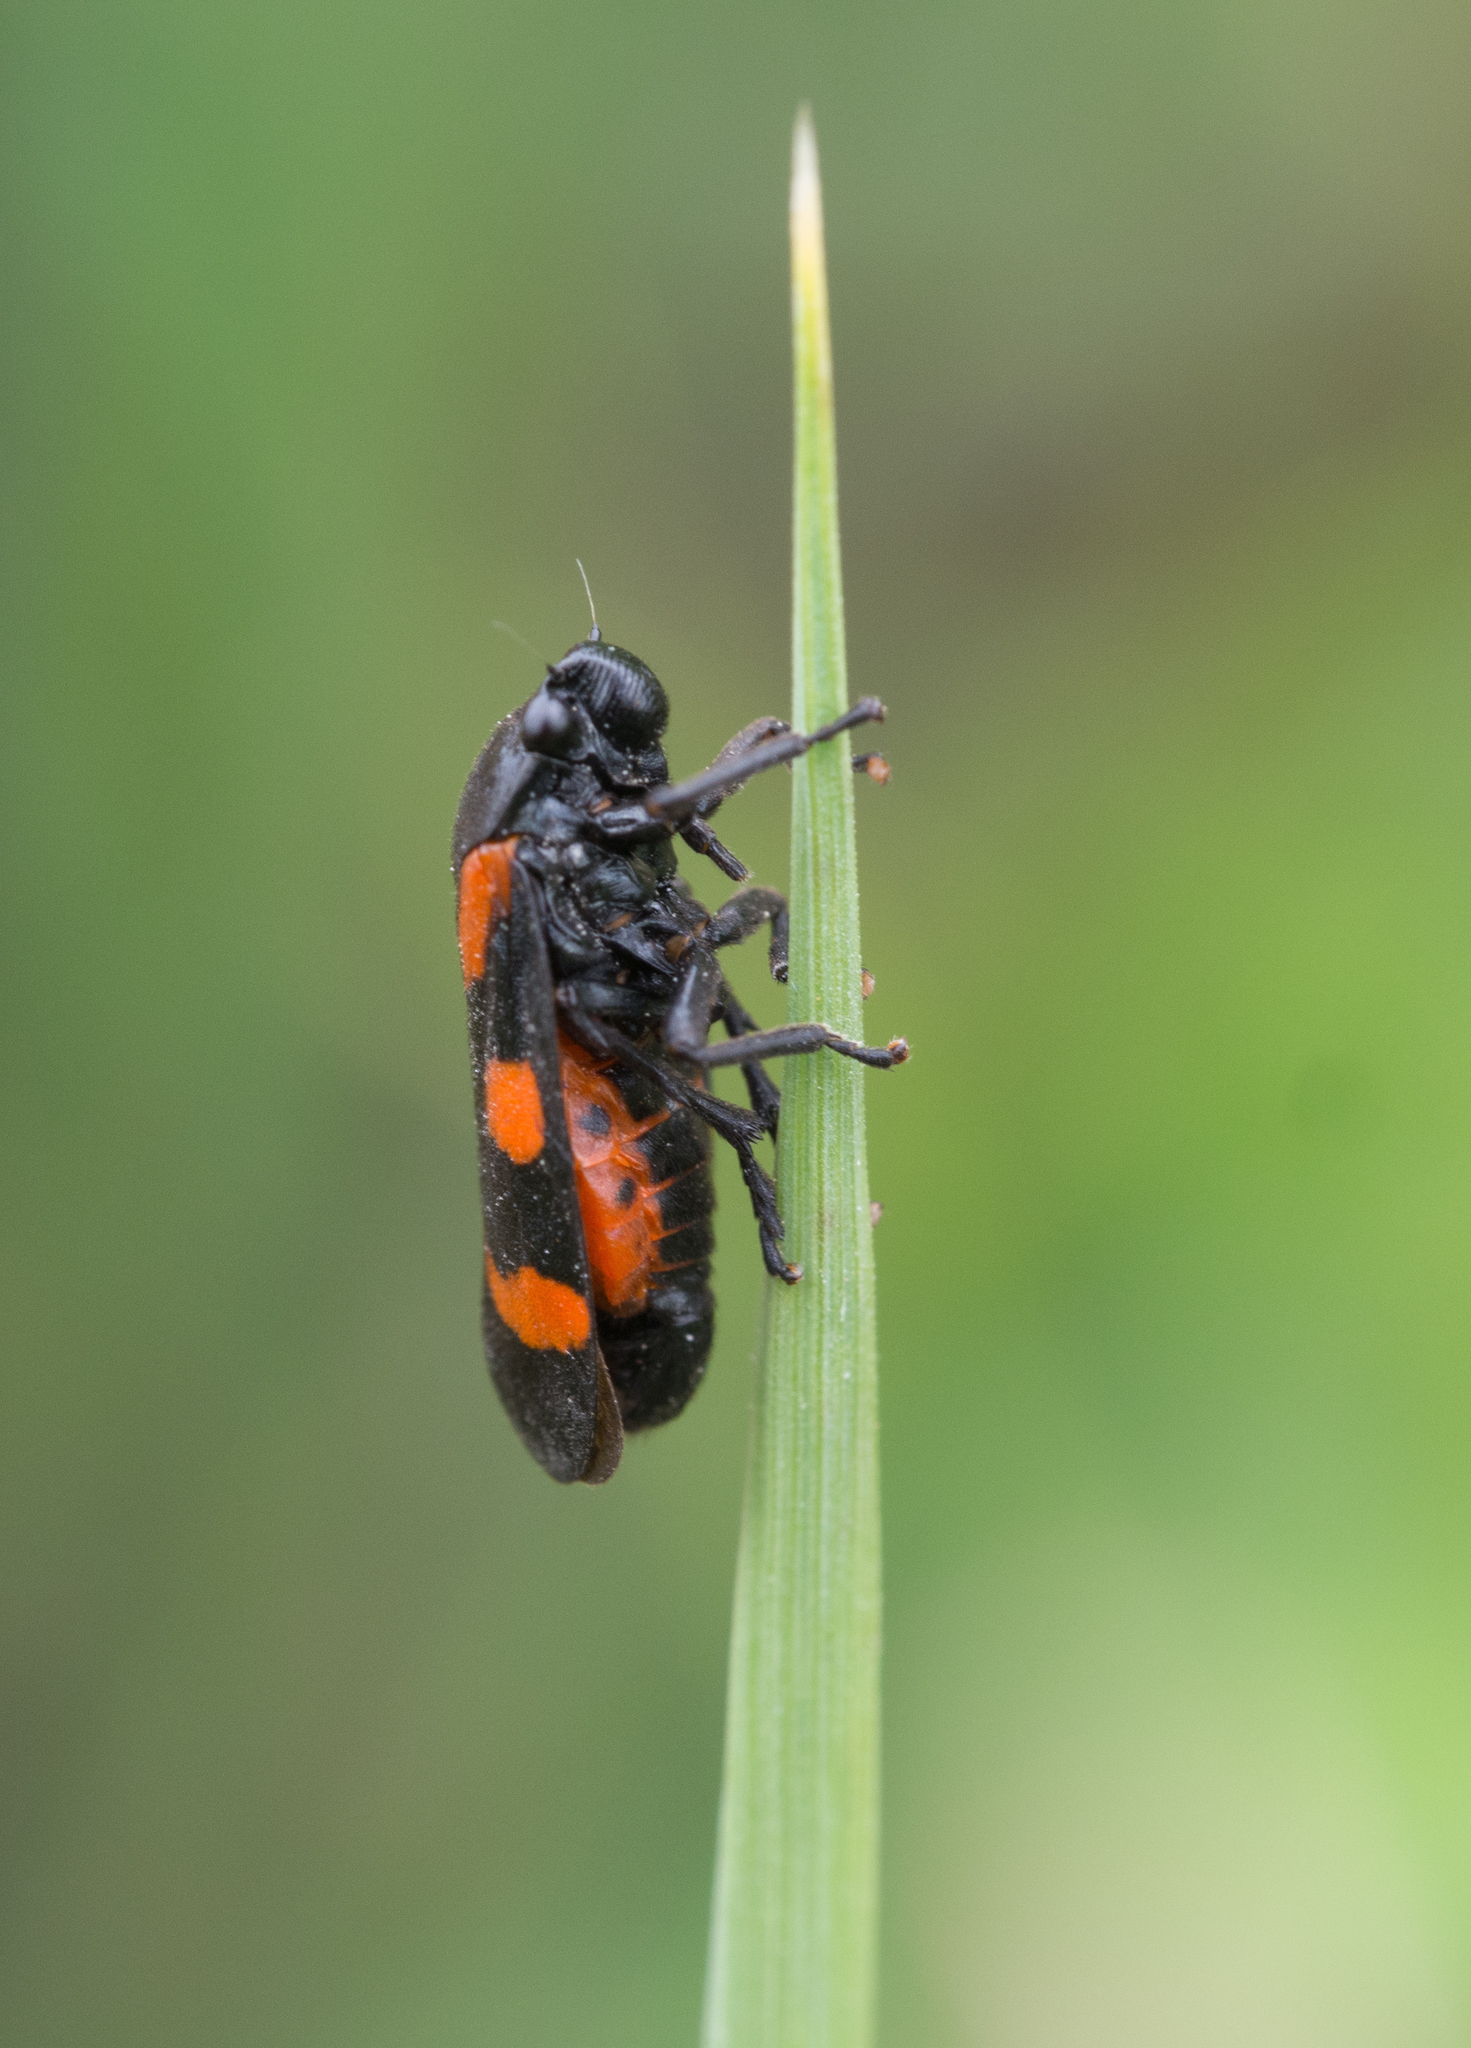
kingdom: Animalia
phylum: Arthropoda
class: Insecta
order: Hemiptera
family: Cercopidae
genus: Cercopis
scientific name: Cercopis sanguinolenta
